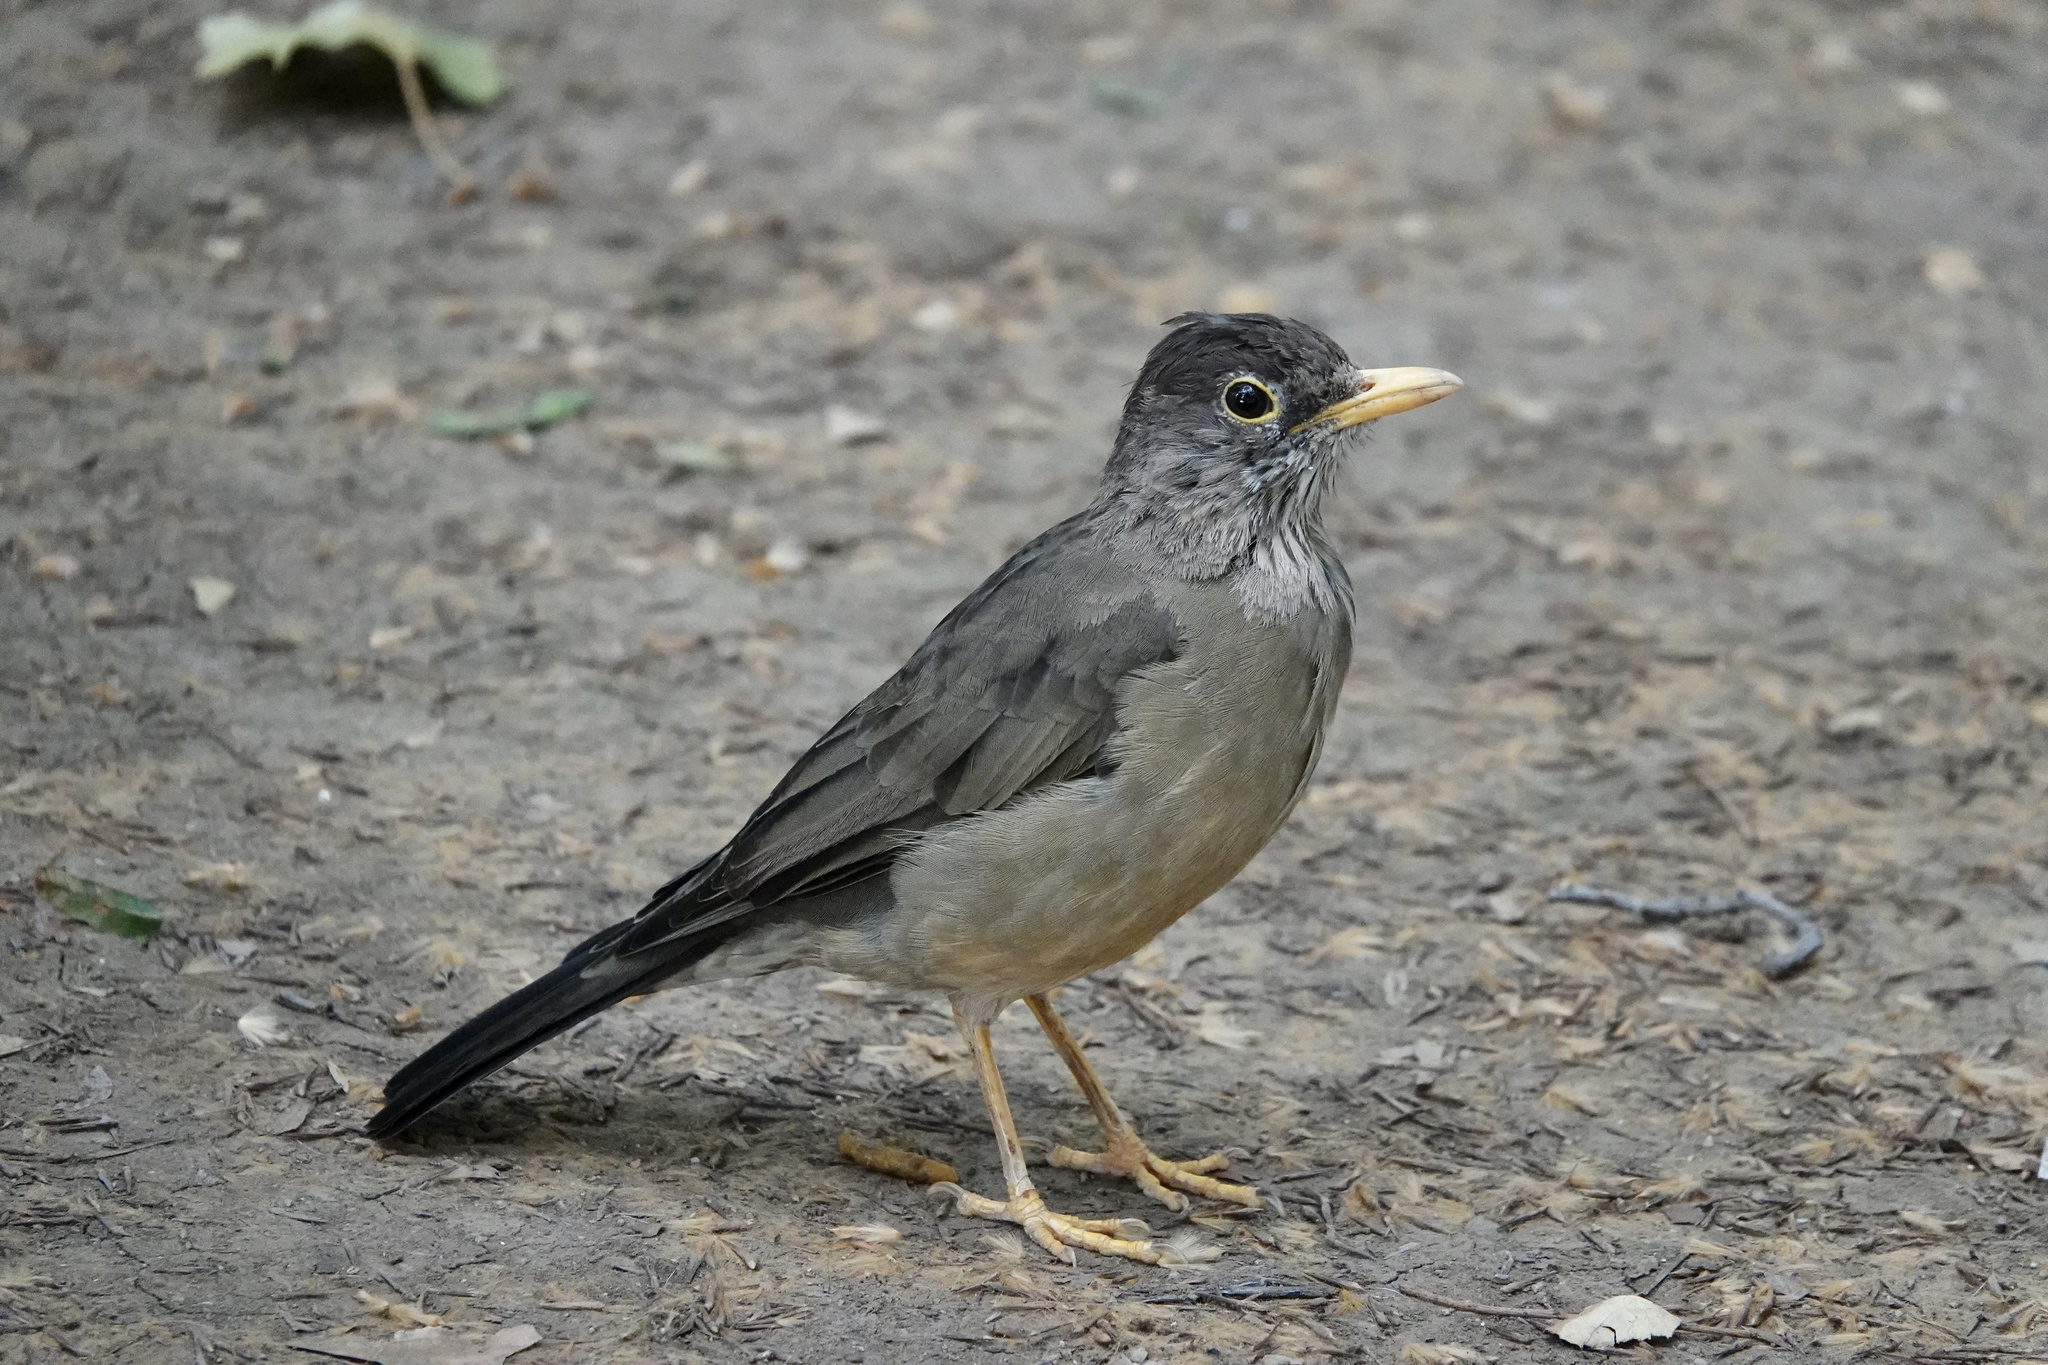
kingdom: Animalia
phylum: Chordata
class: Aves
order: Passeriformes
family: Turdidae
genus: Turdus
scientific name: Turdus falcklandii
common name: Austral thrush
